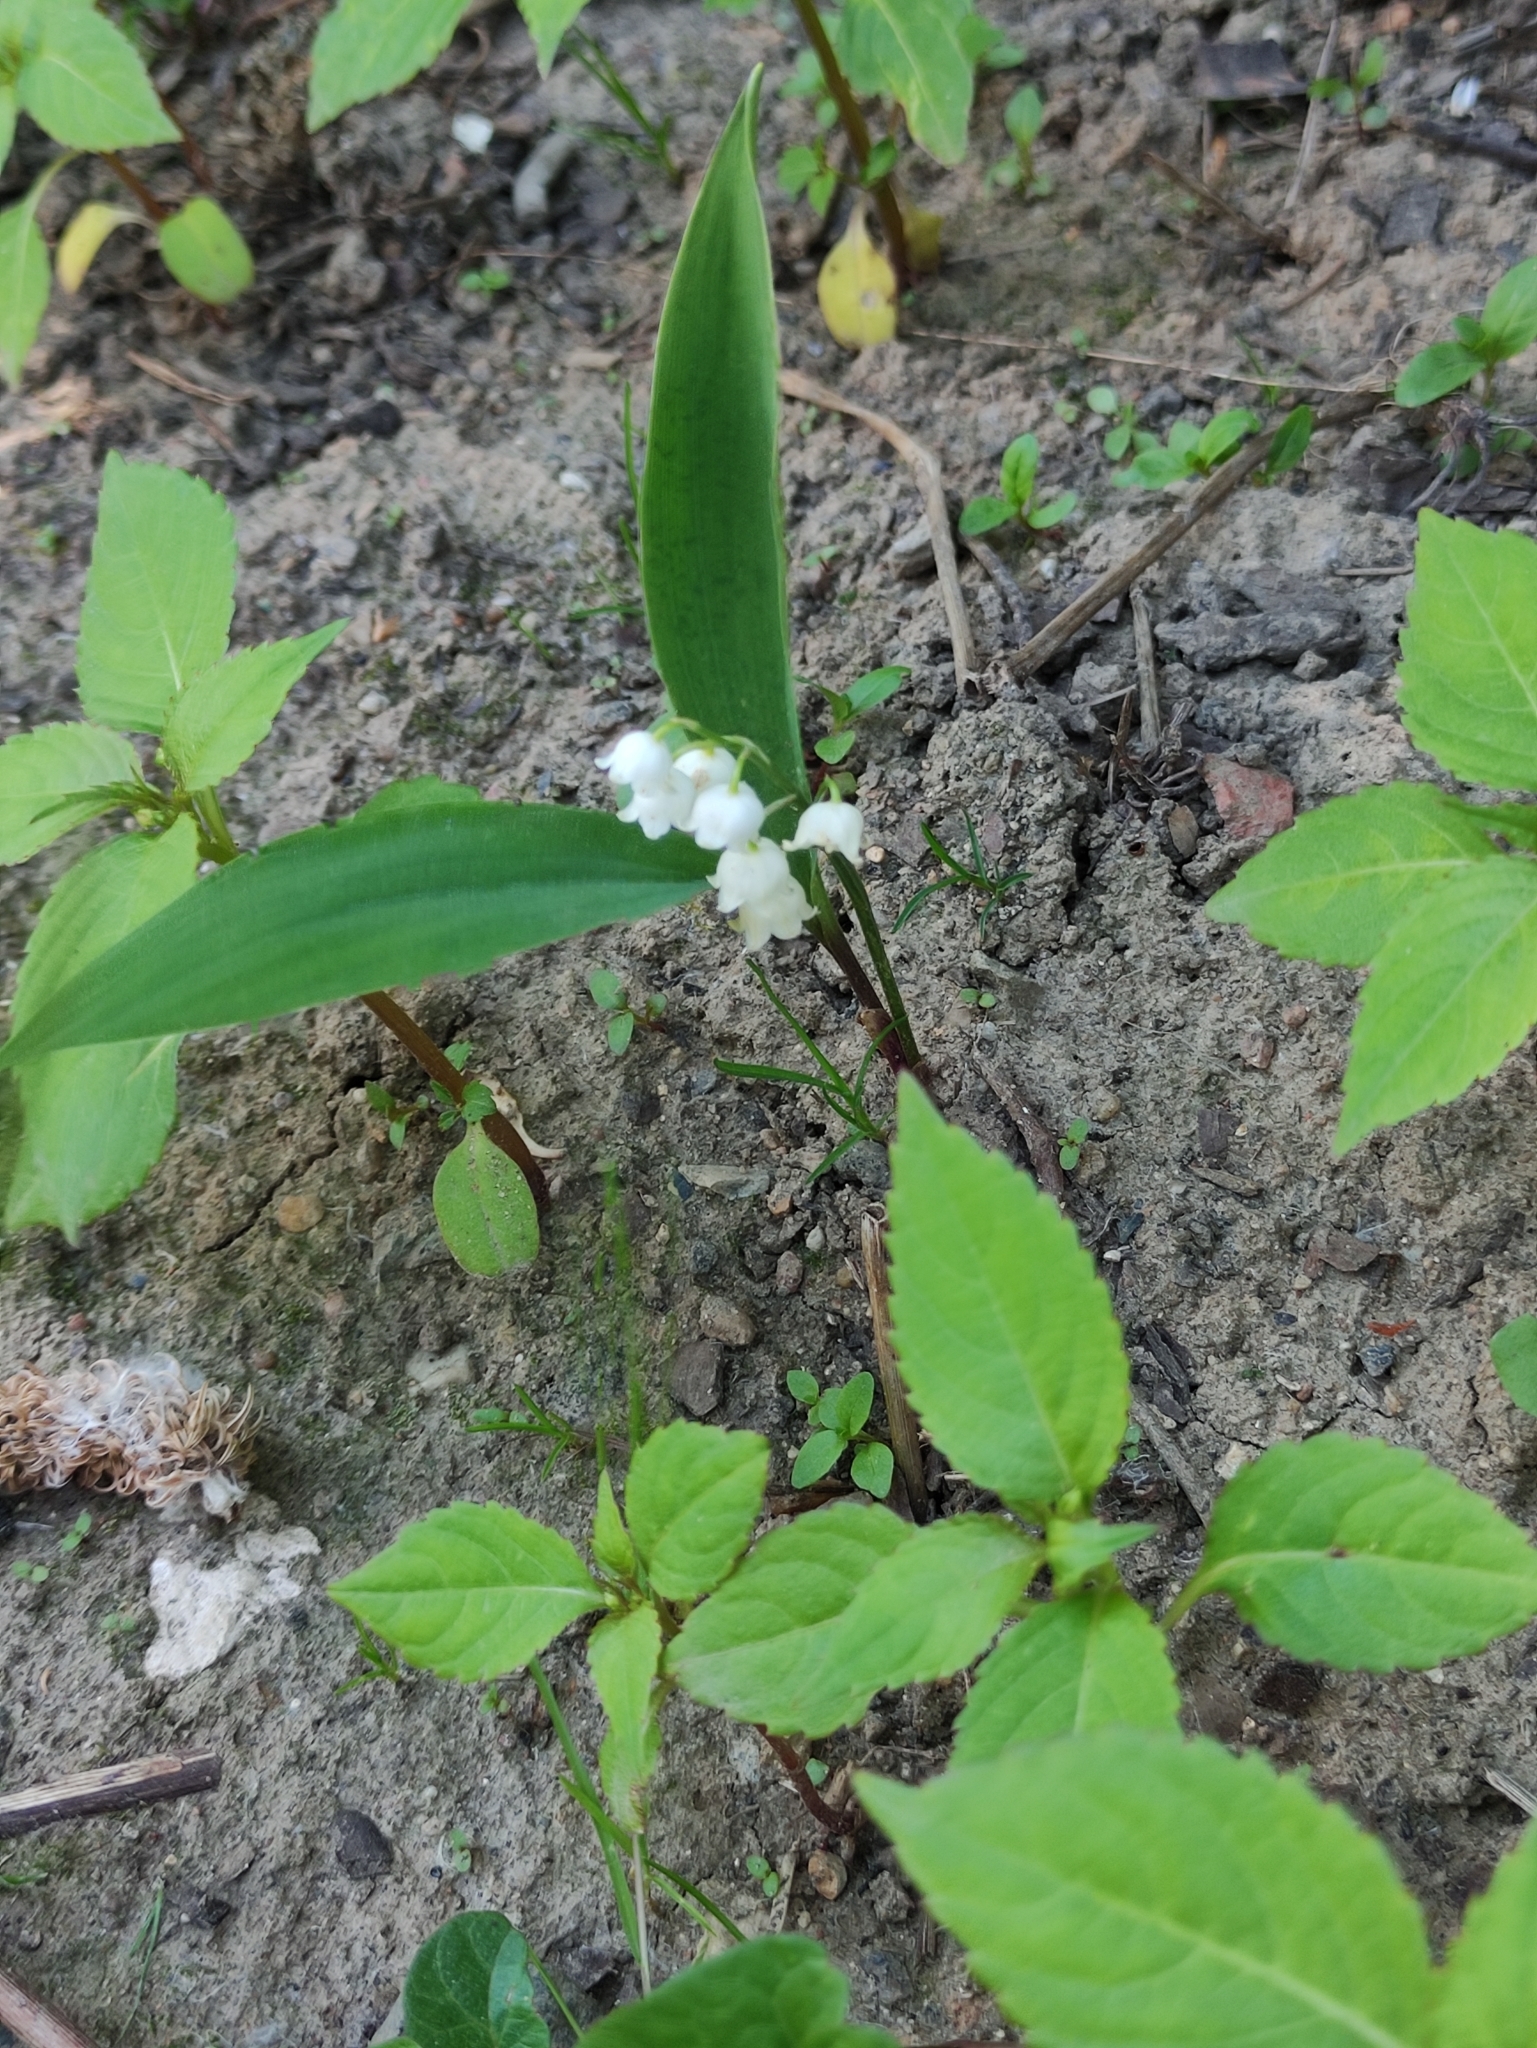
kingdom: Plantae
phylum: Tracheophyta
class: Liliopsida
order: Asparagales
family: Asparagaceae
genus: Convallaria
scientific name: Convallaria majalis
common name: Lily-of-the-valley
